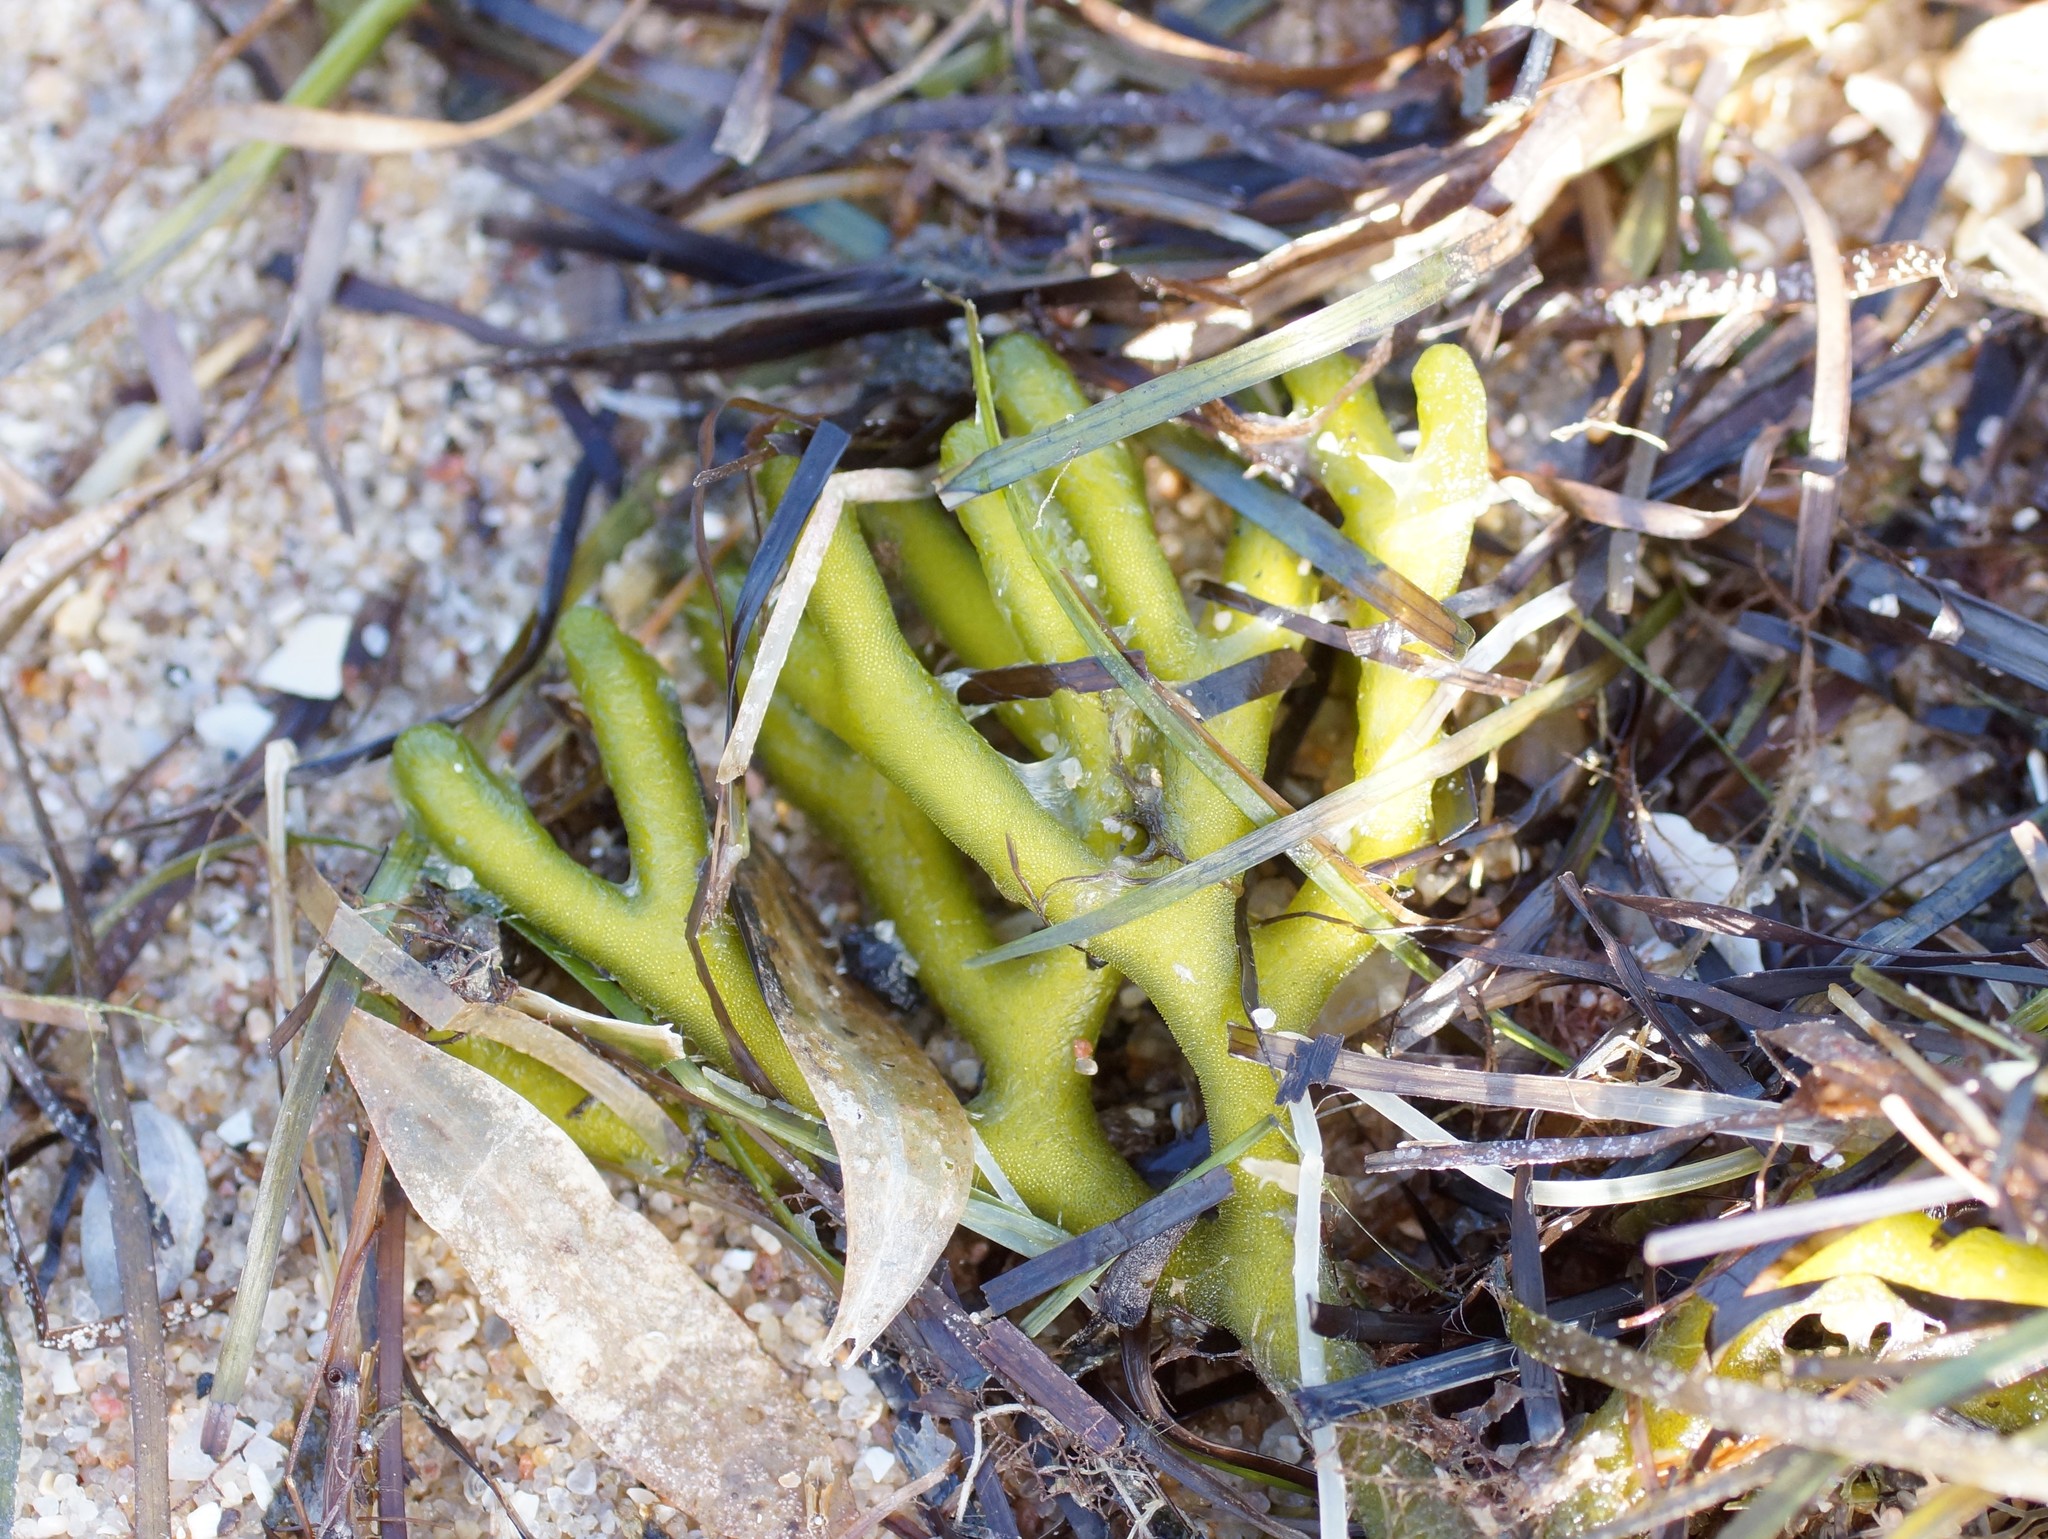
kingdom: Plantae
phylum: Chlorophyta
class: Ulvophyceae
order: Bryopsidales
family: Codiaceae
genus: Codium
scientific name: Codium fragile
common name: Dead man's fingers
